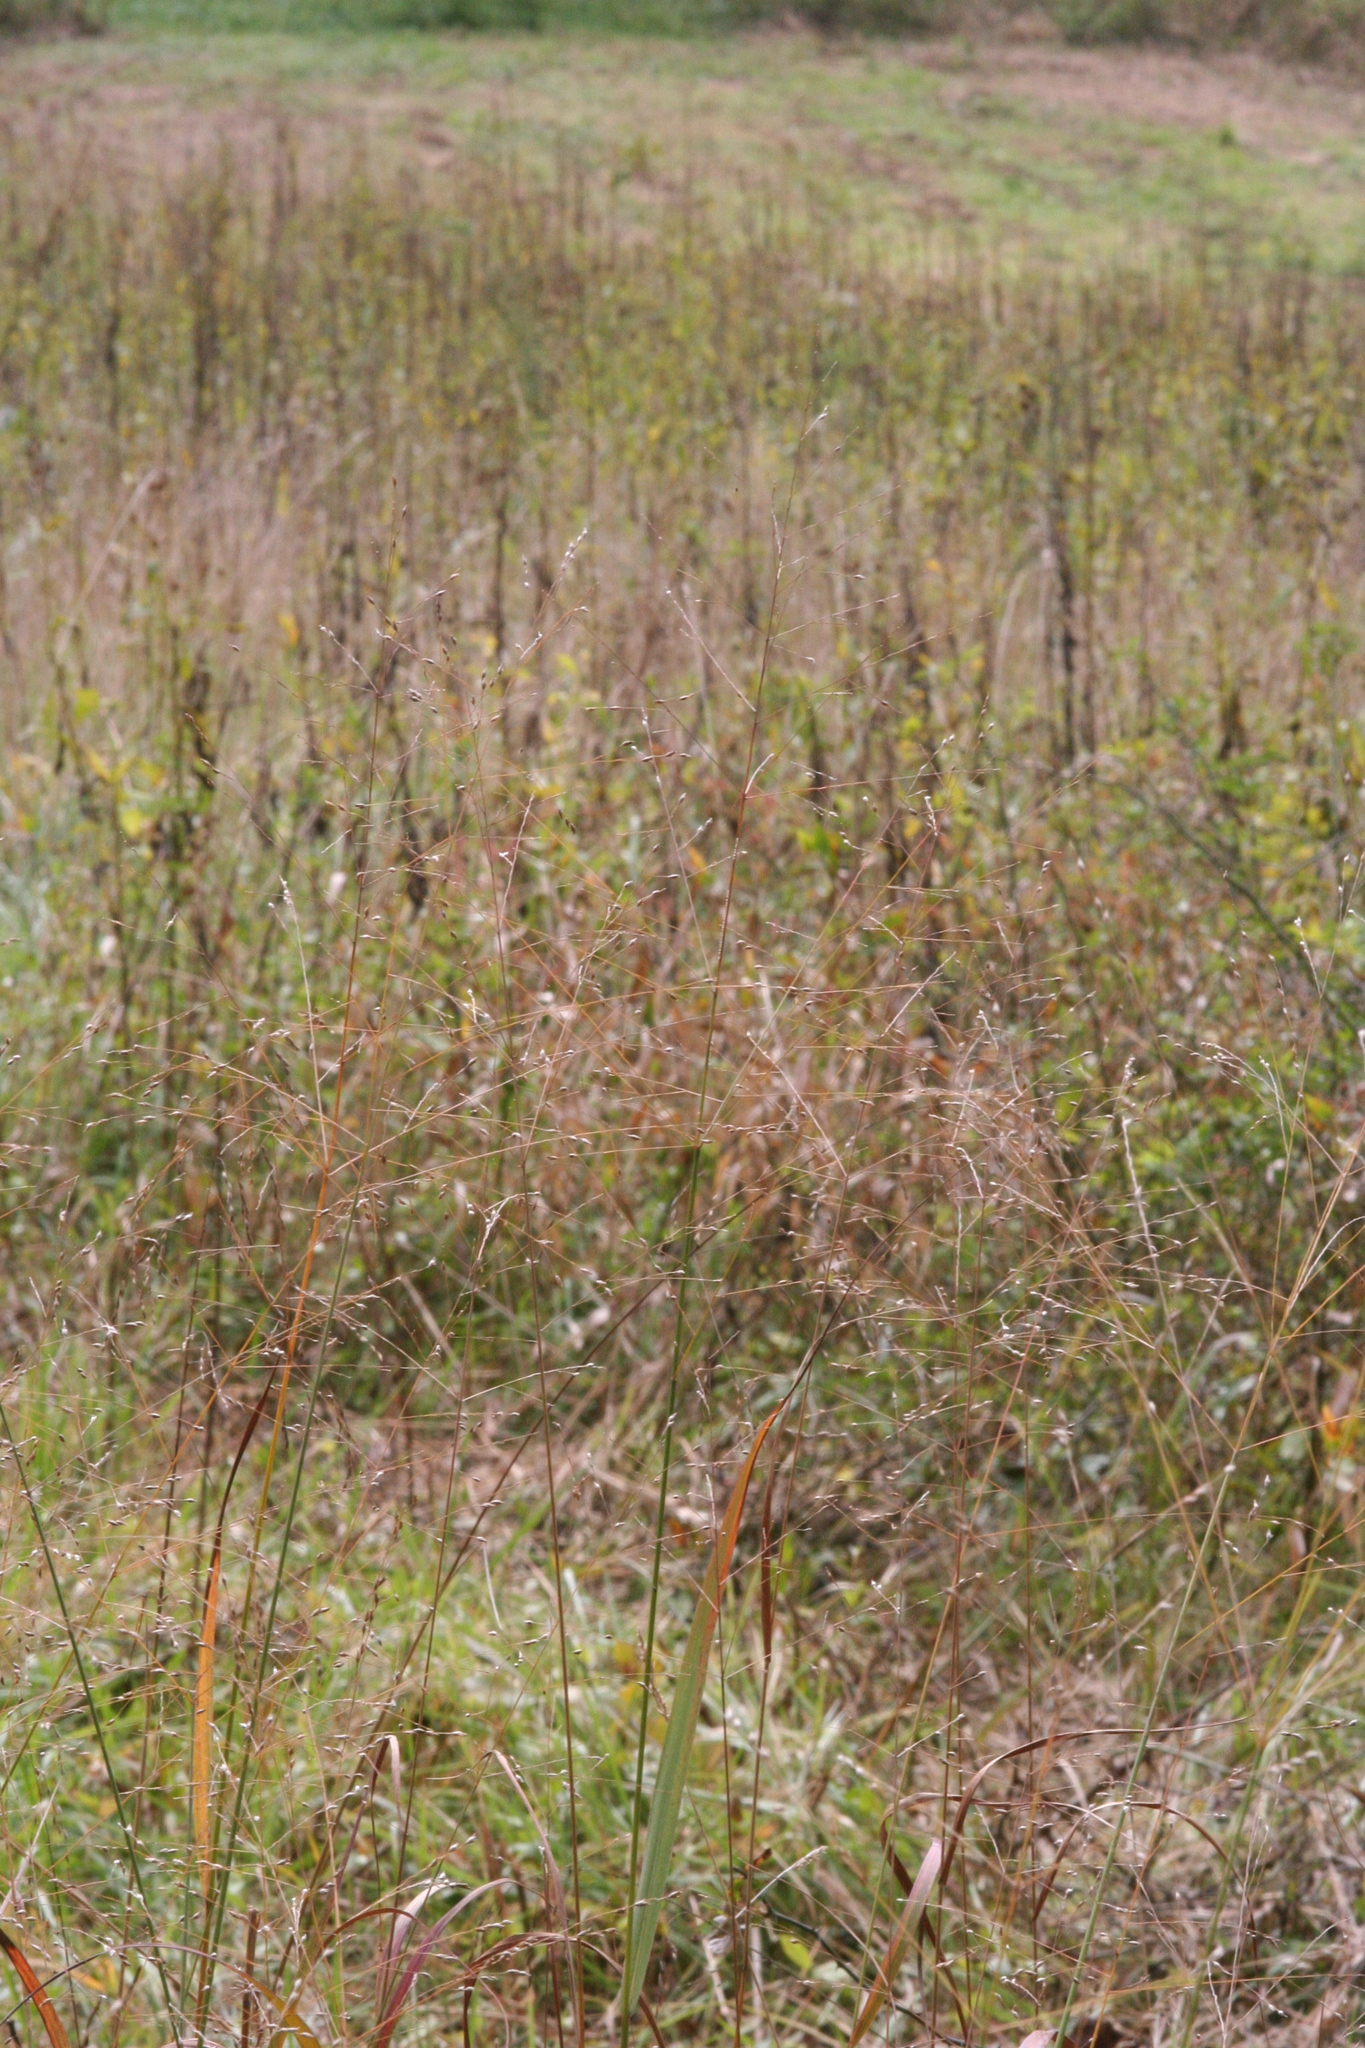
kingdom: Plantae
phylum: Tracheophyta
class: Liliopsida
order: Poales
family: Poaceae
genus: Panicum
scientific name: Panicum virgatum
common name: Switchgrass
